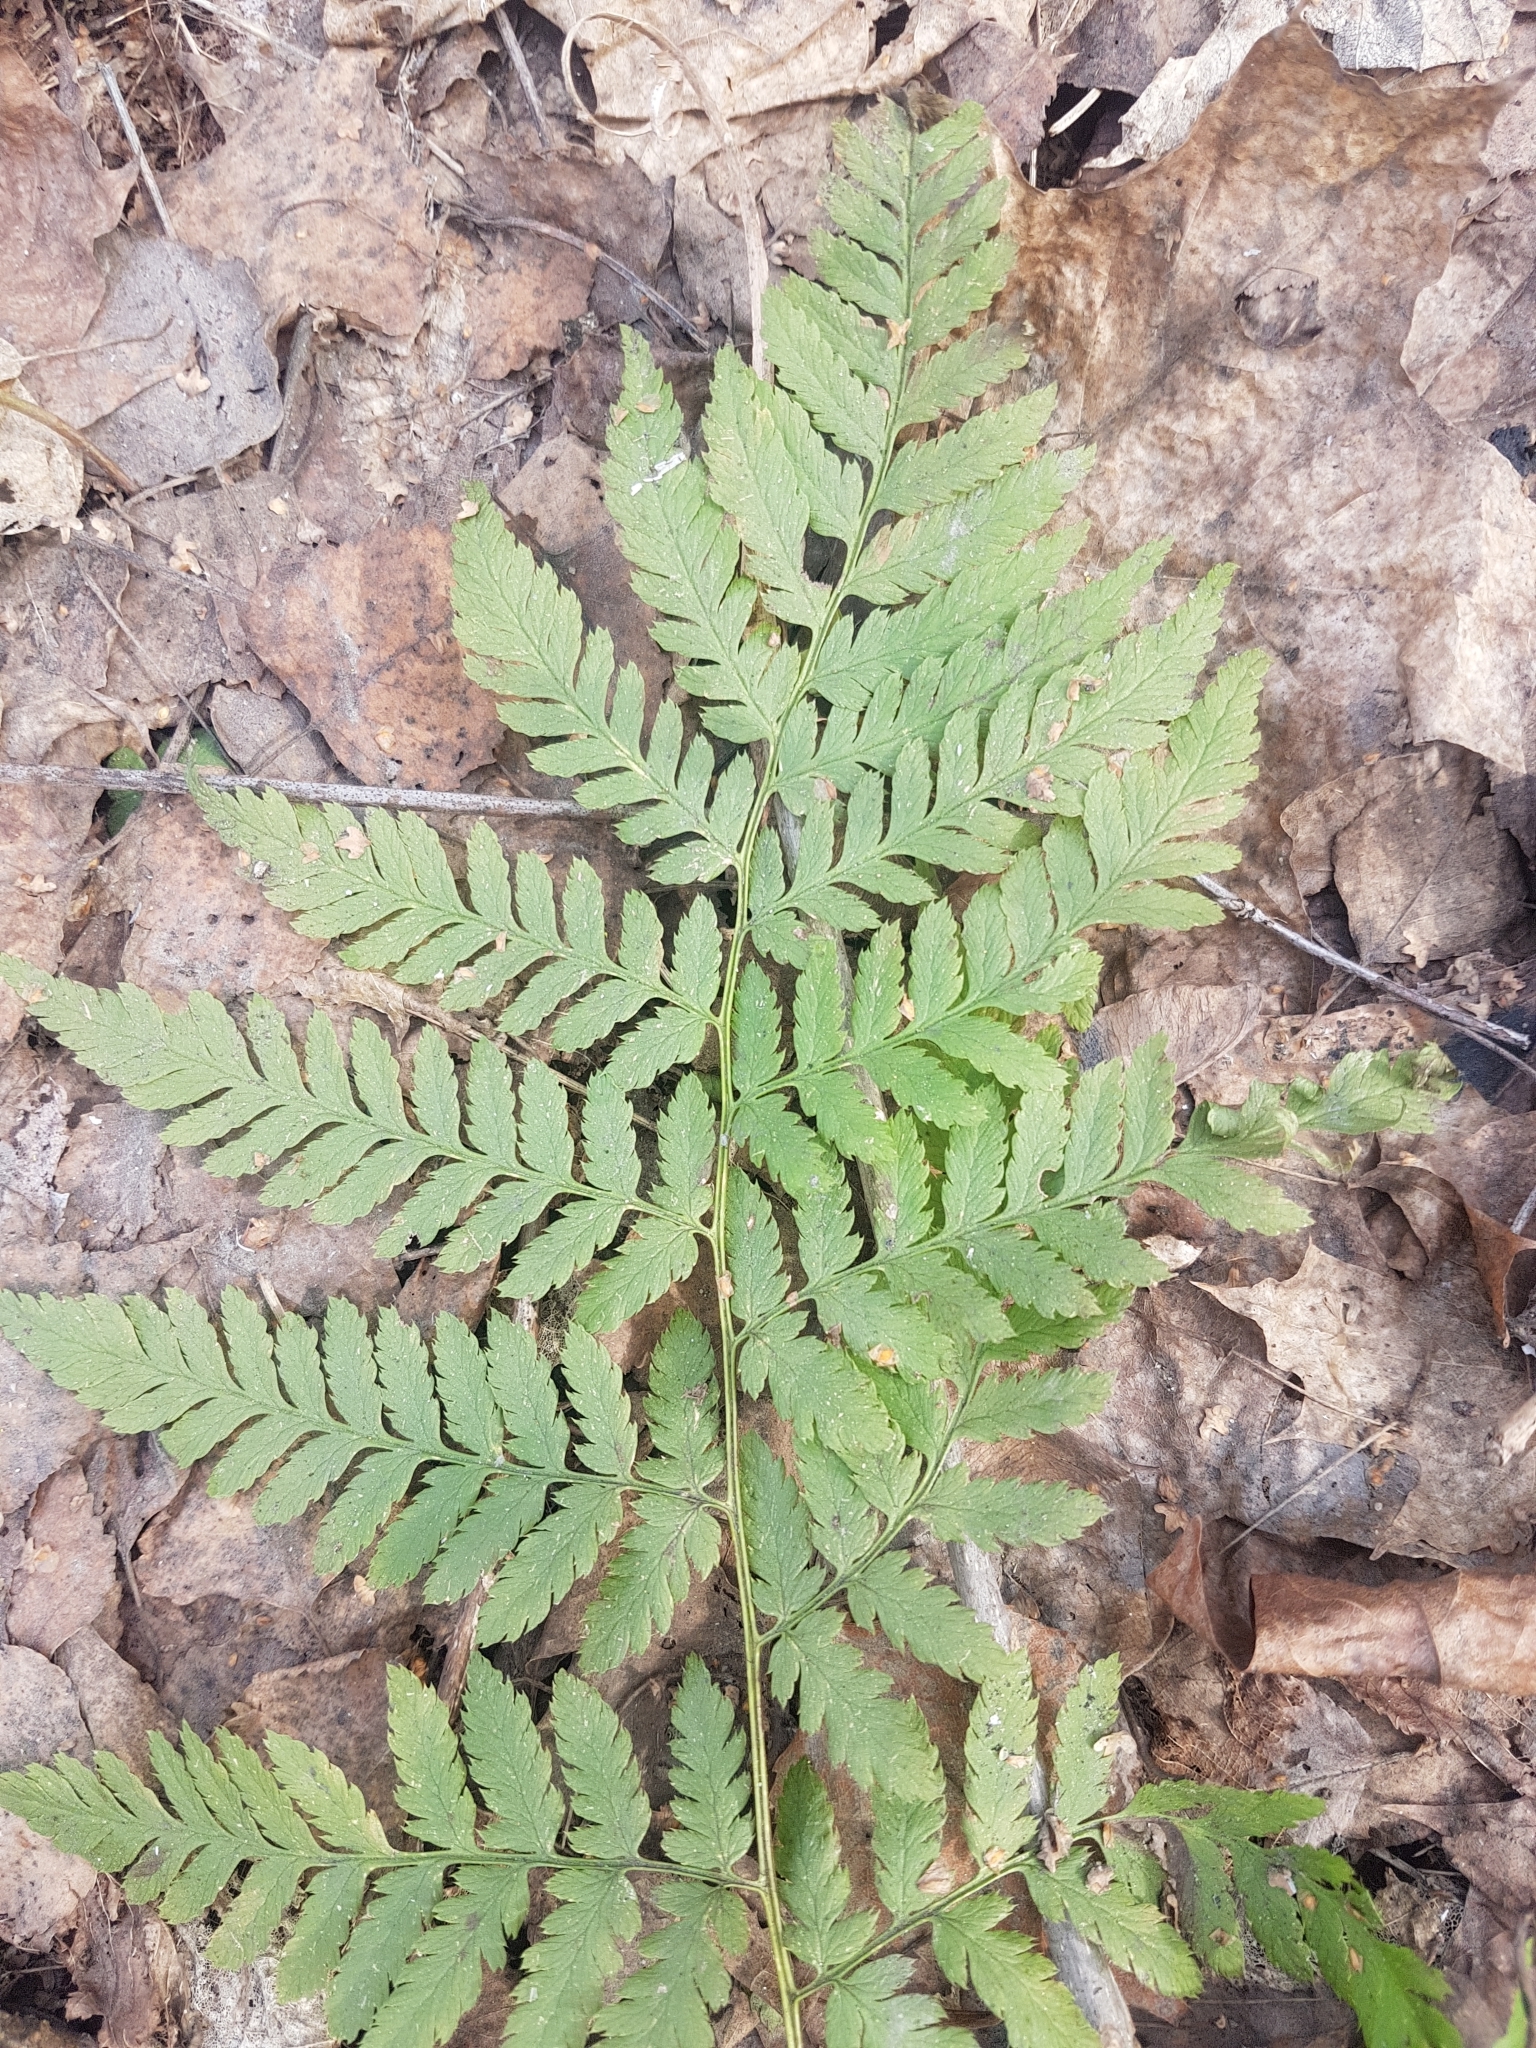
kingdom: Plantae
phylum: Tracheophyta
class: Polypodiopsida
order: Polypodiales
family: Dryopteridaceae
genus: Dryopteris
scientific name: Dryopteris carthusiana
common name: Narrow buckler-fern
